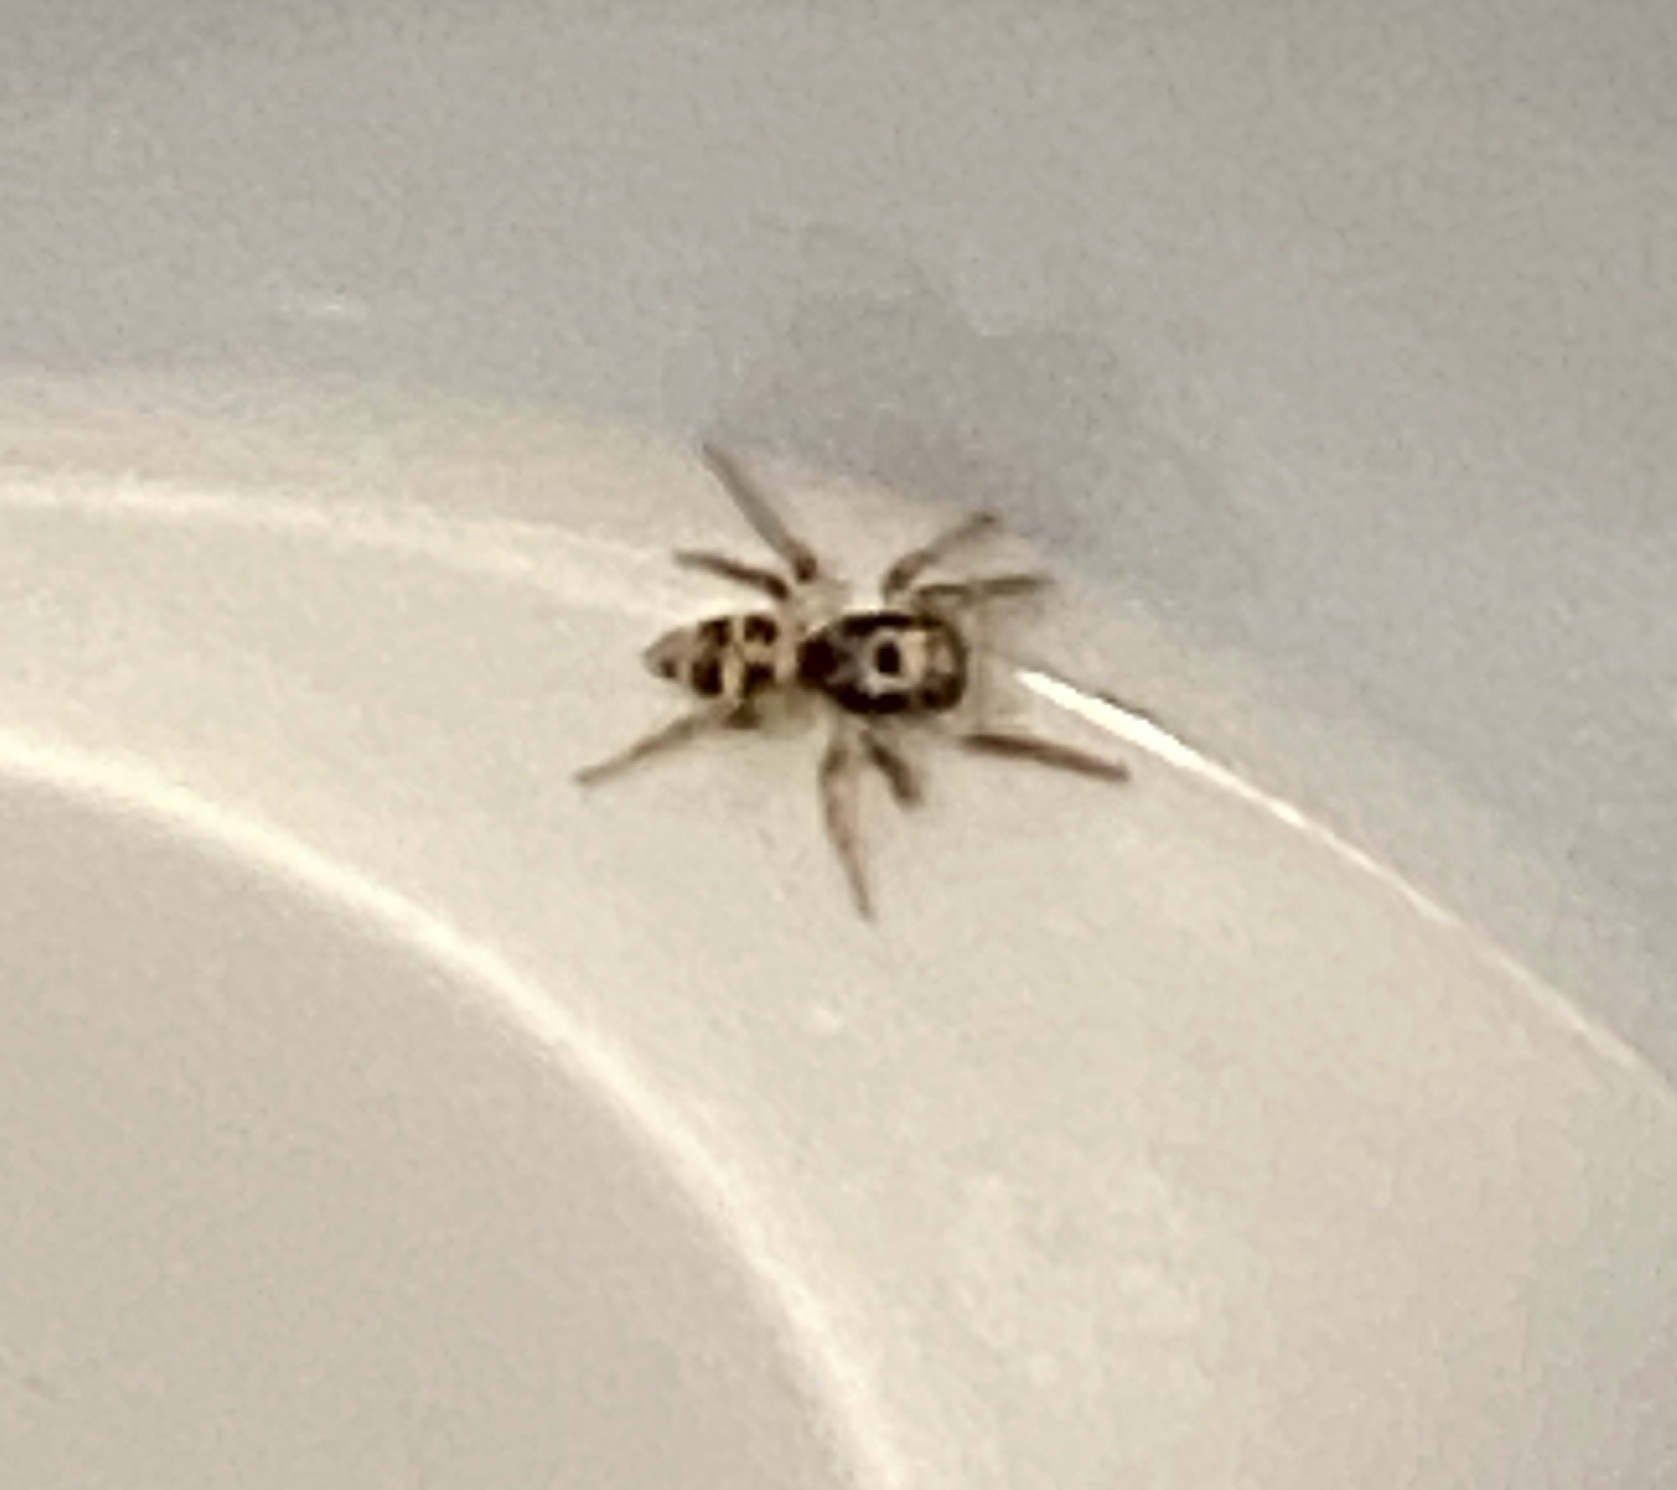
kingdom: Animalia
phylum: Arthropoda
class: Arachnida
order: Araneae
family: Salticidae
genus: Salticus
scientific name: Salticus scenicus
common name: Zebra jumper
